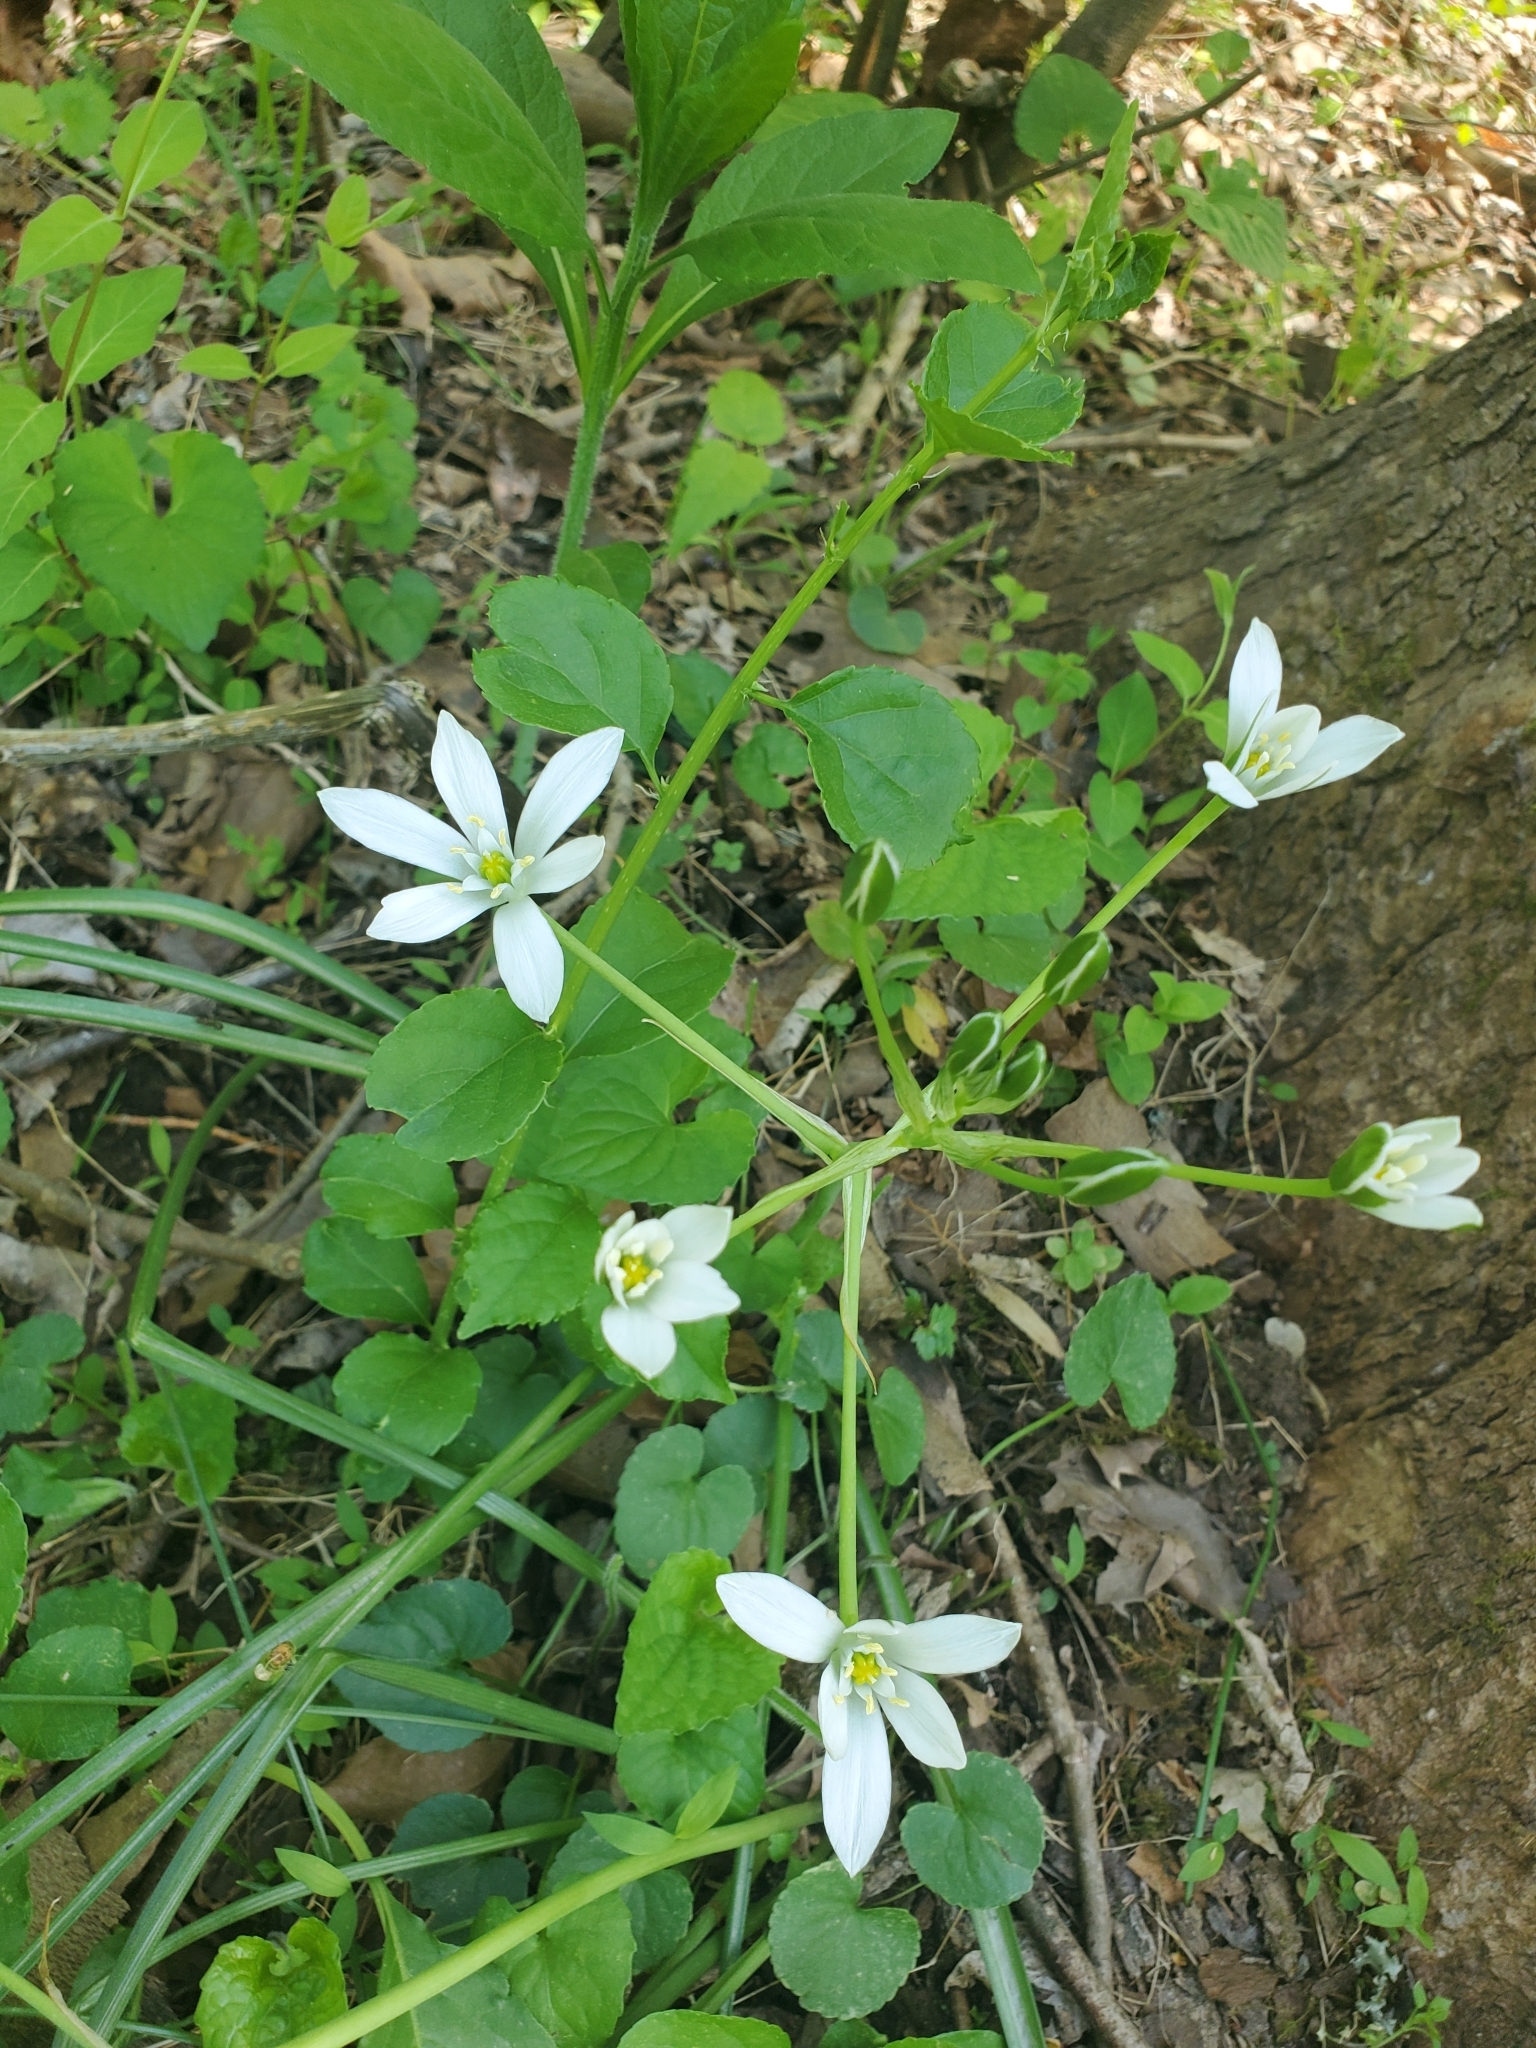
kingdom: Plantae
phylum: Tracheophyta
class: Liliopsida
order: Asparagales
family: Asparagaceae
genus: Ornithogalum
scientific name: Ornithogalum umbellatum
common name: Garden star-of-bethlehem
